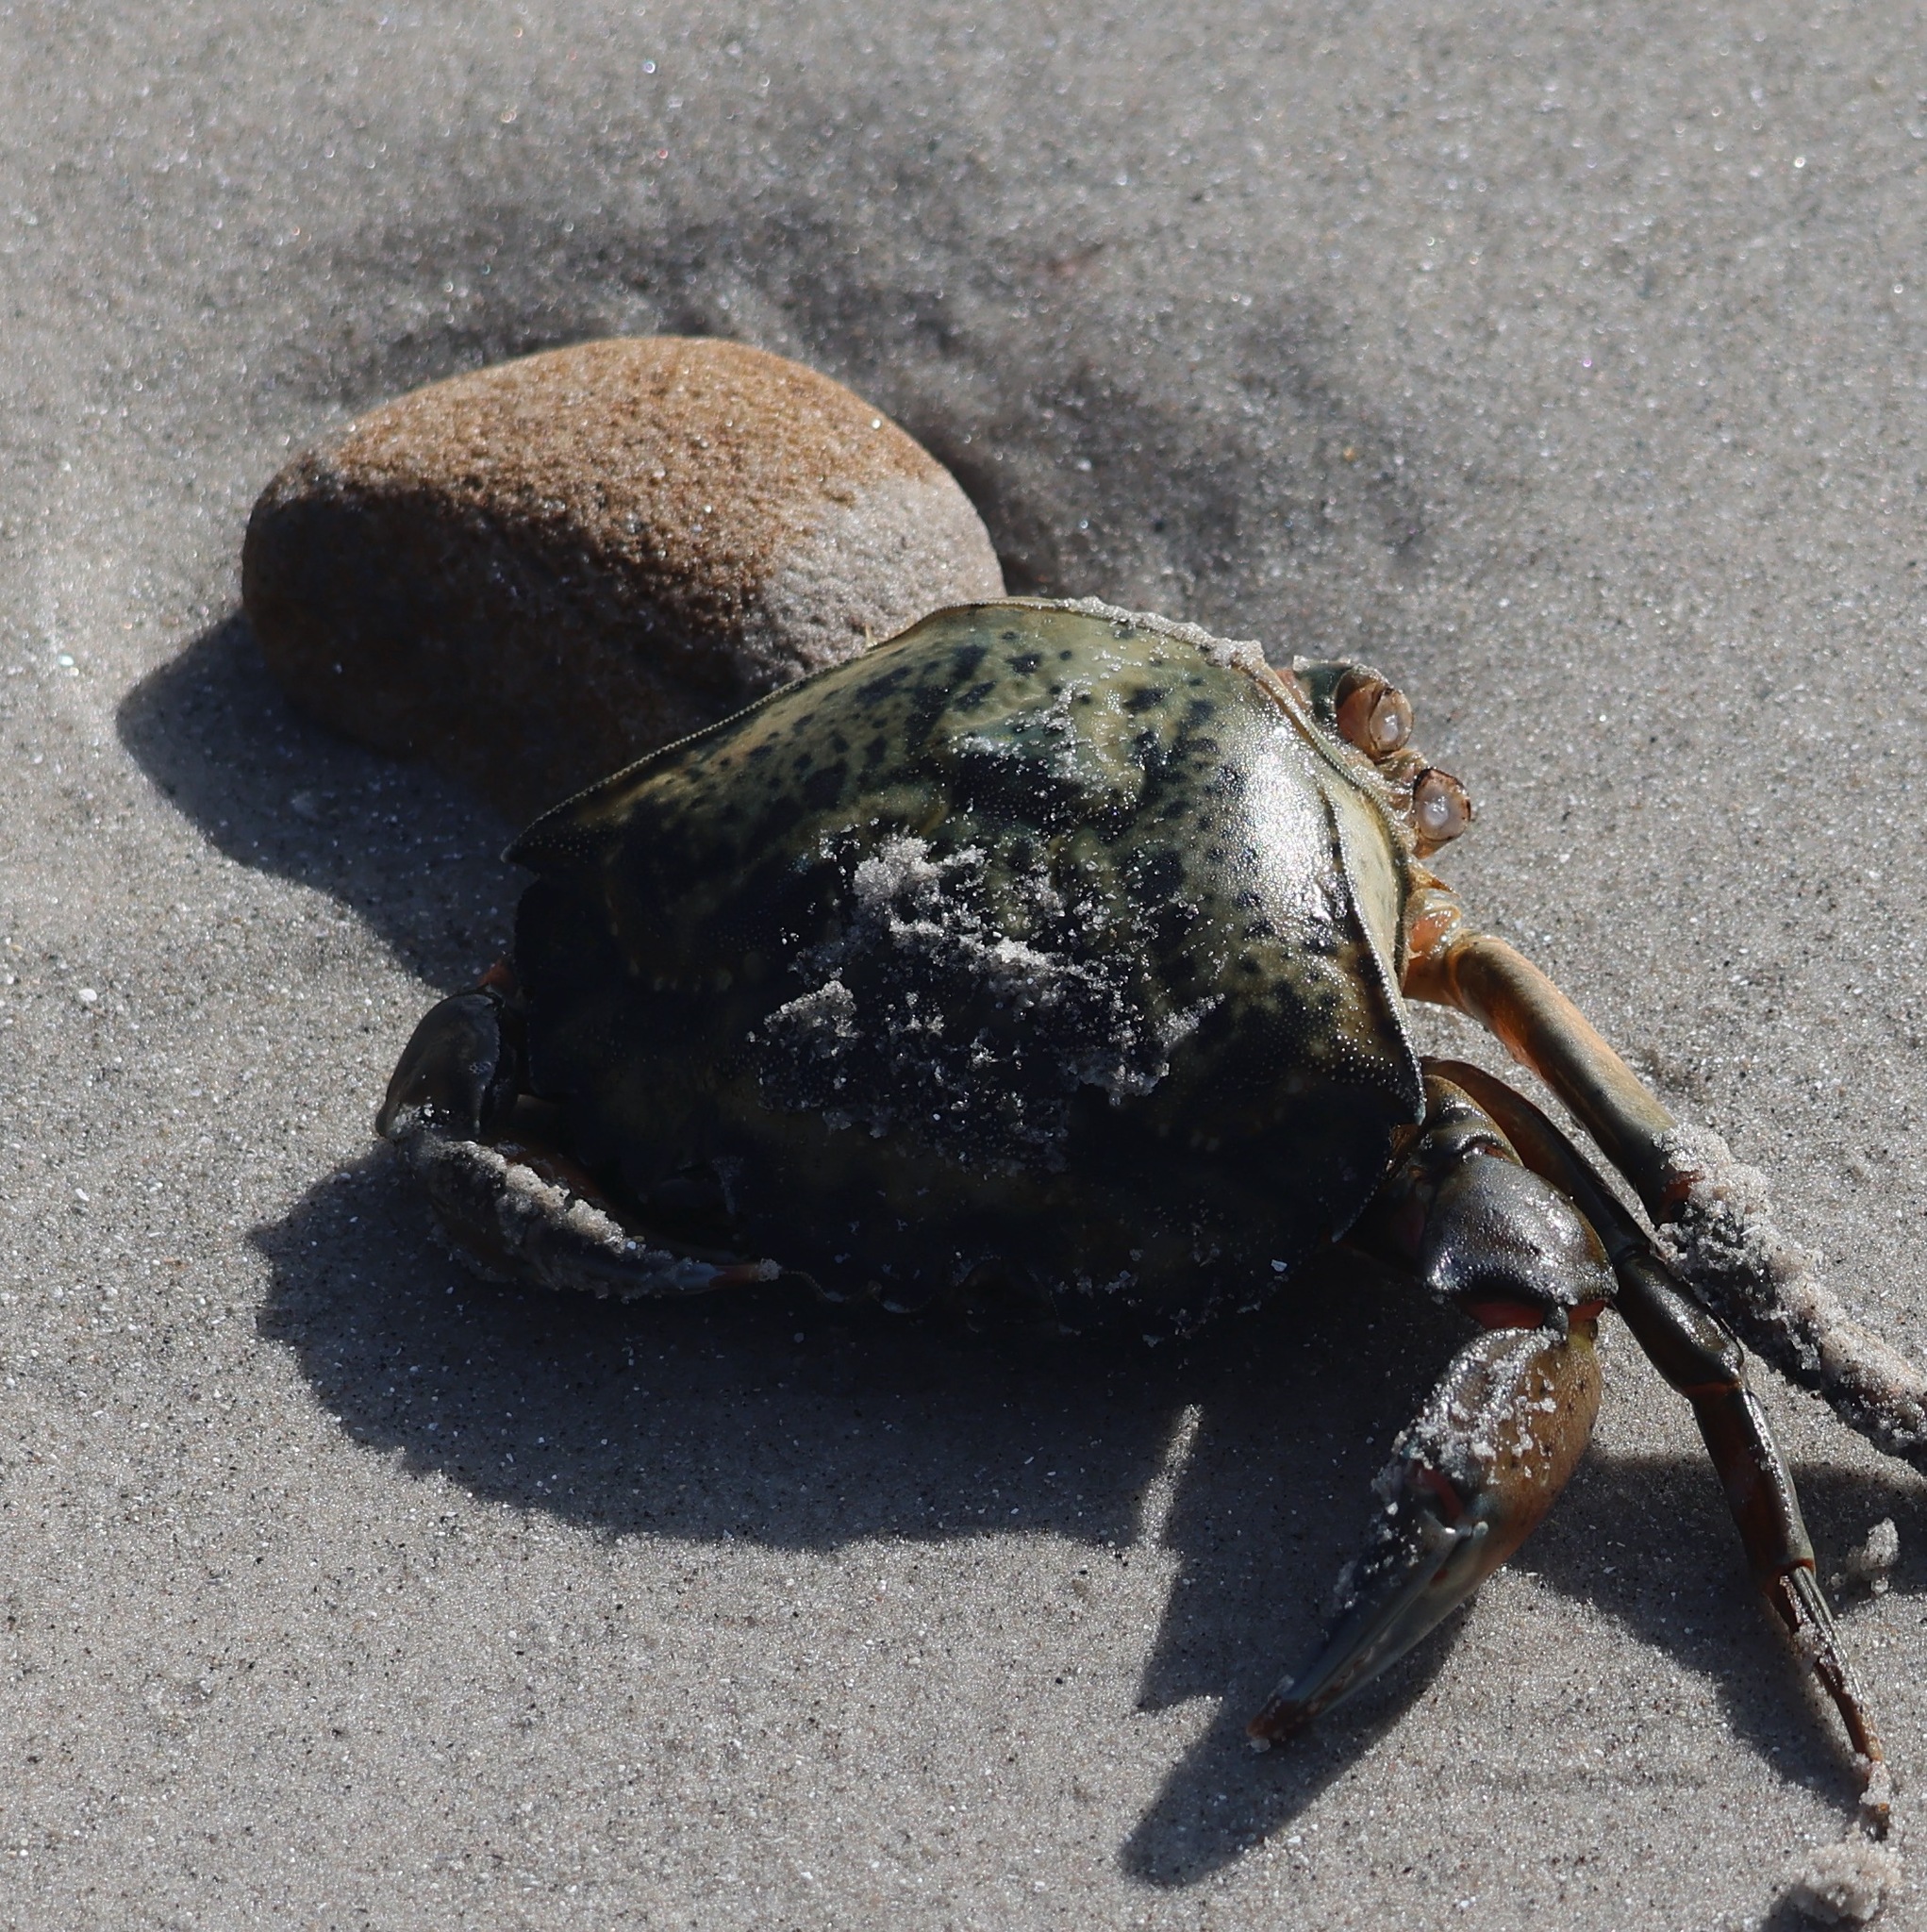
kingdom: Animalia
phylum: Arthropoda
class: Malacostraca
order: Decapoda
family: Carcinidae
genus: Carcinus
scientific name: Carcinus maenas
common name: European green crab
